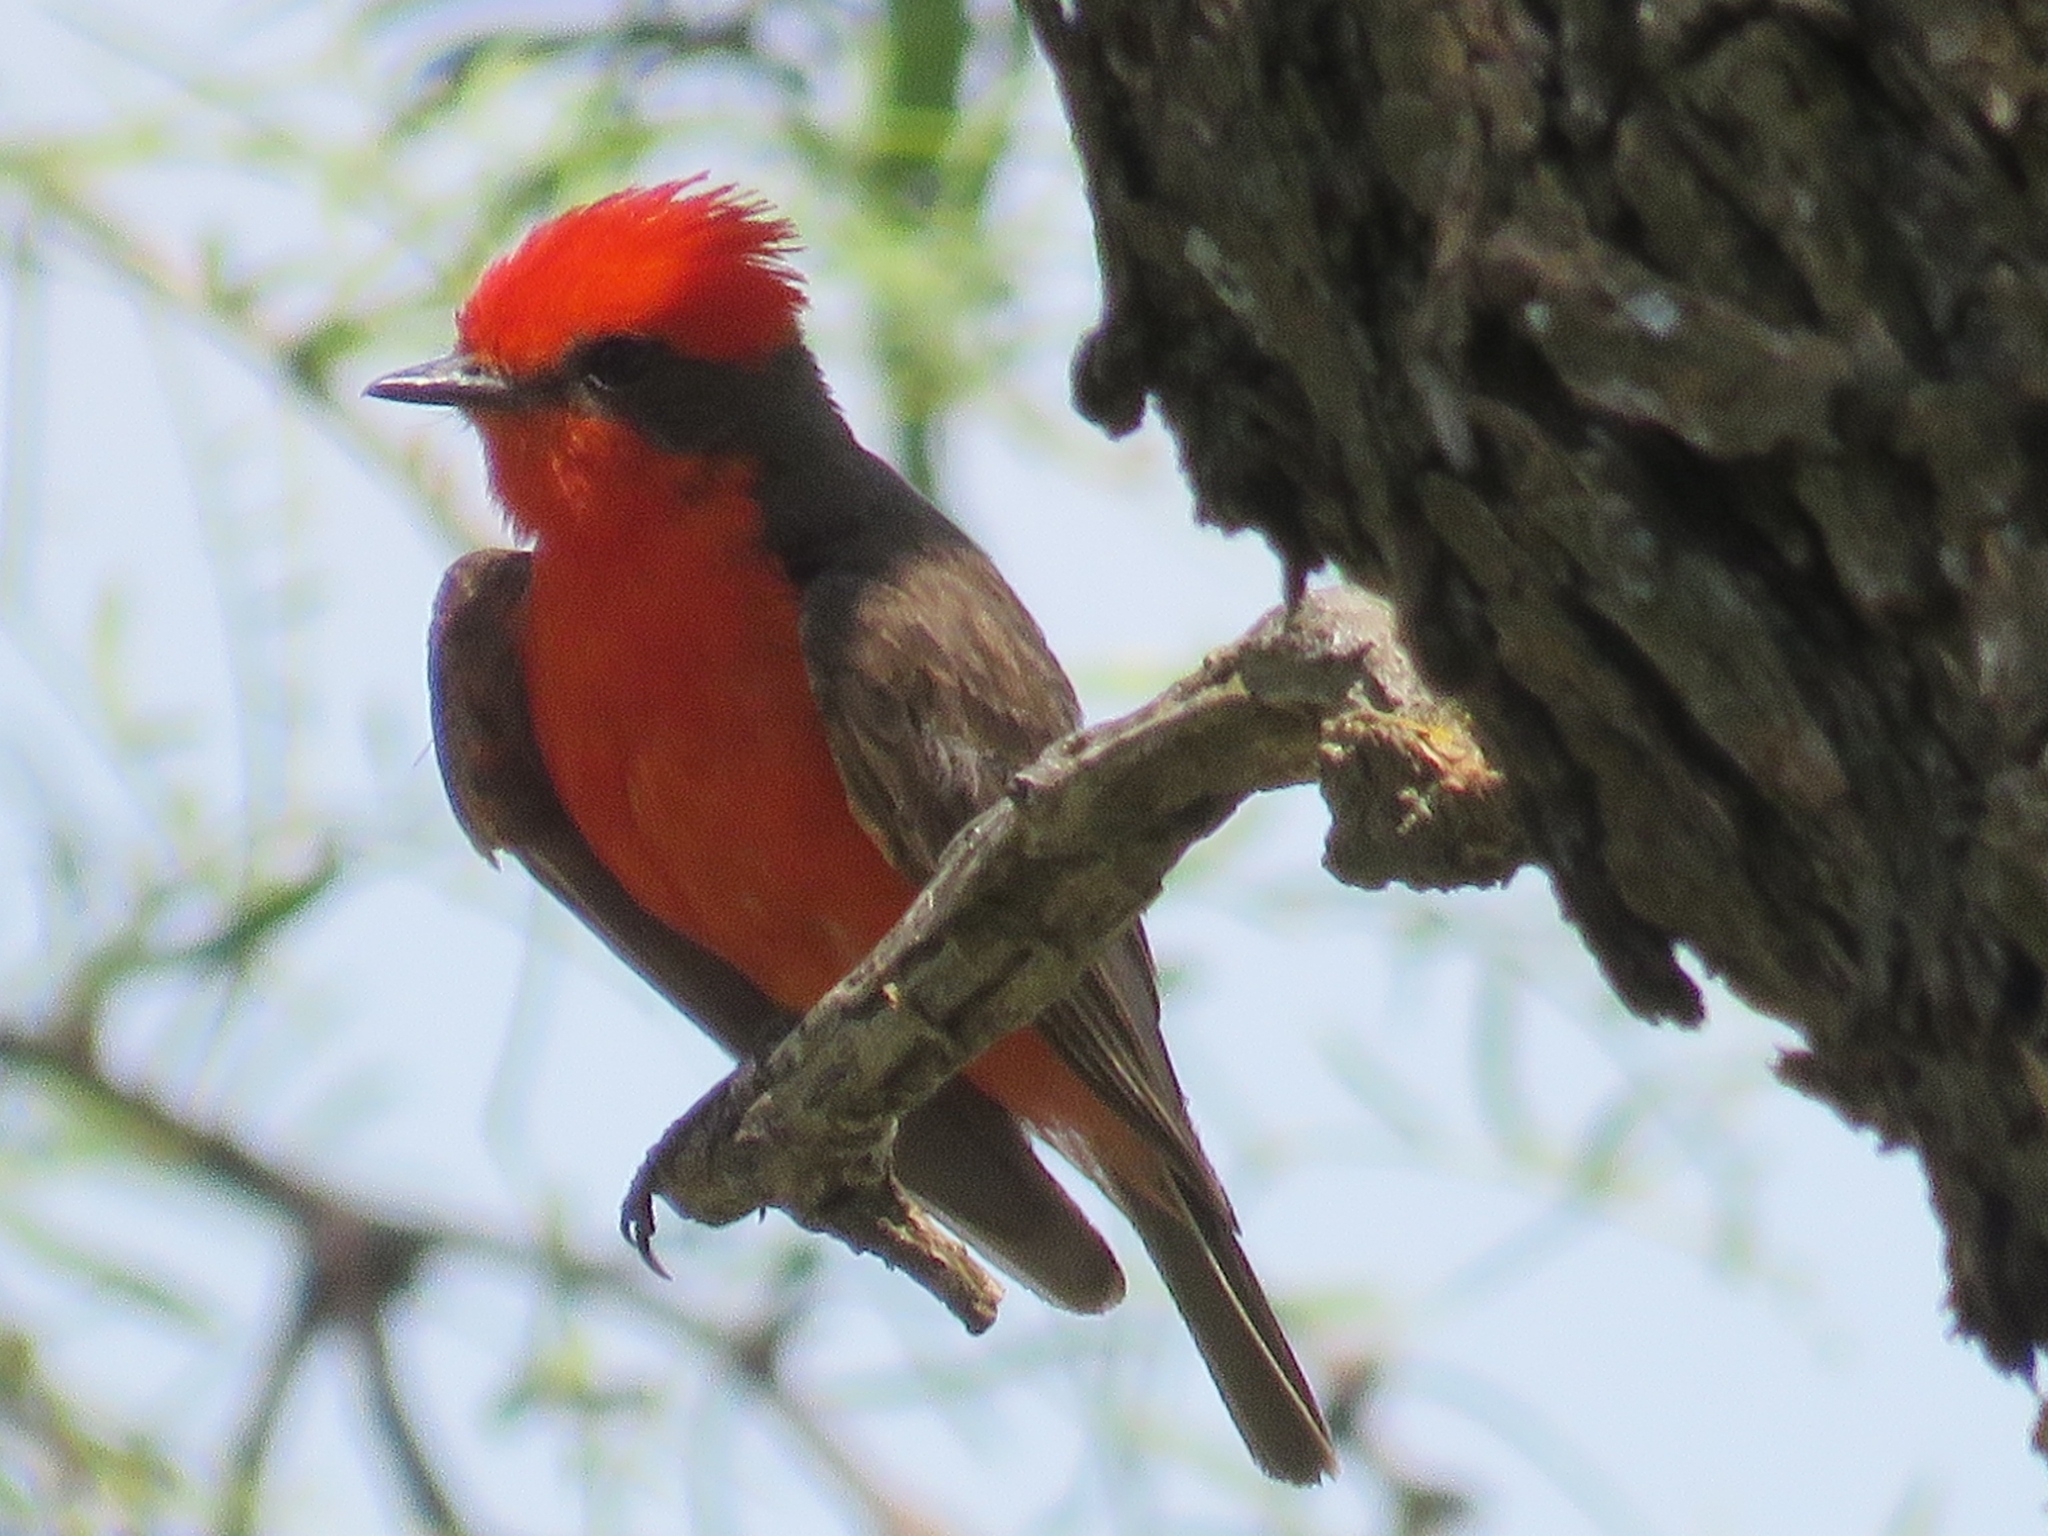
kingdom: Animalia
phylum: Chordata
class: Aves
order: Passeriformes
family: Tyrannidae
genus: Pyrocephalus
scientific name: Pyrocephalus rubinus
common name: Vermilion flycatcher
